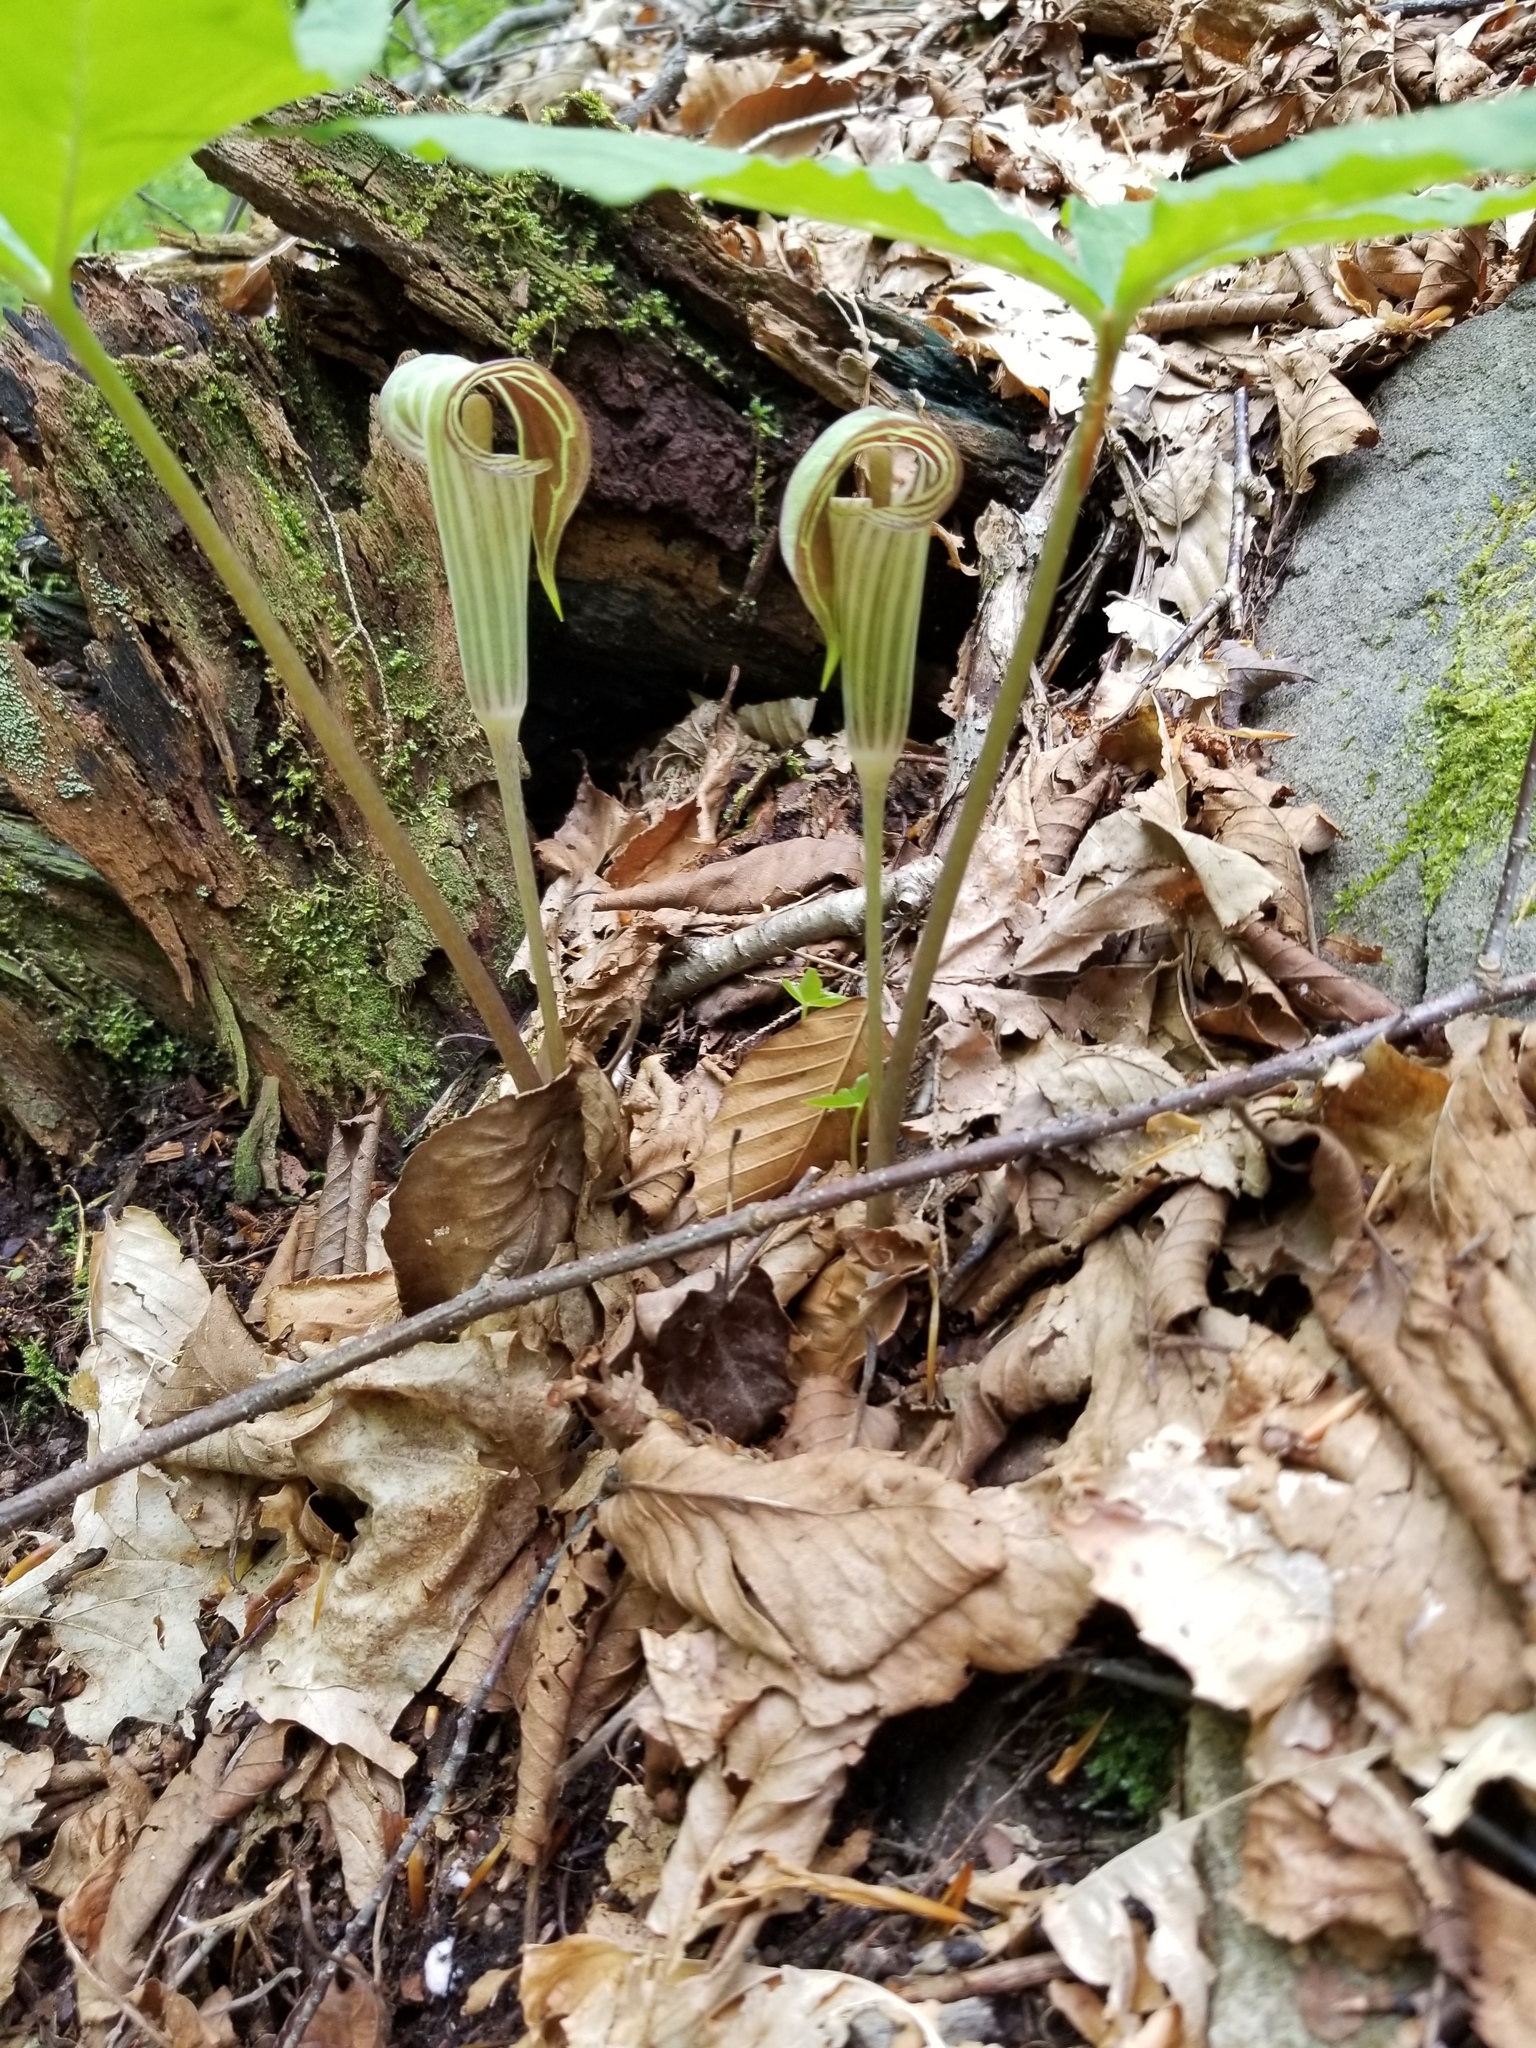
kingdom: Plantae
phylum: Tracheophyta
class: Liliopsida
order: Alismatales
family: Araceae
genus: Arisaema
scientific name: Arisaema triphyllum
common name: Jack-in-the-pulpit
